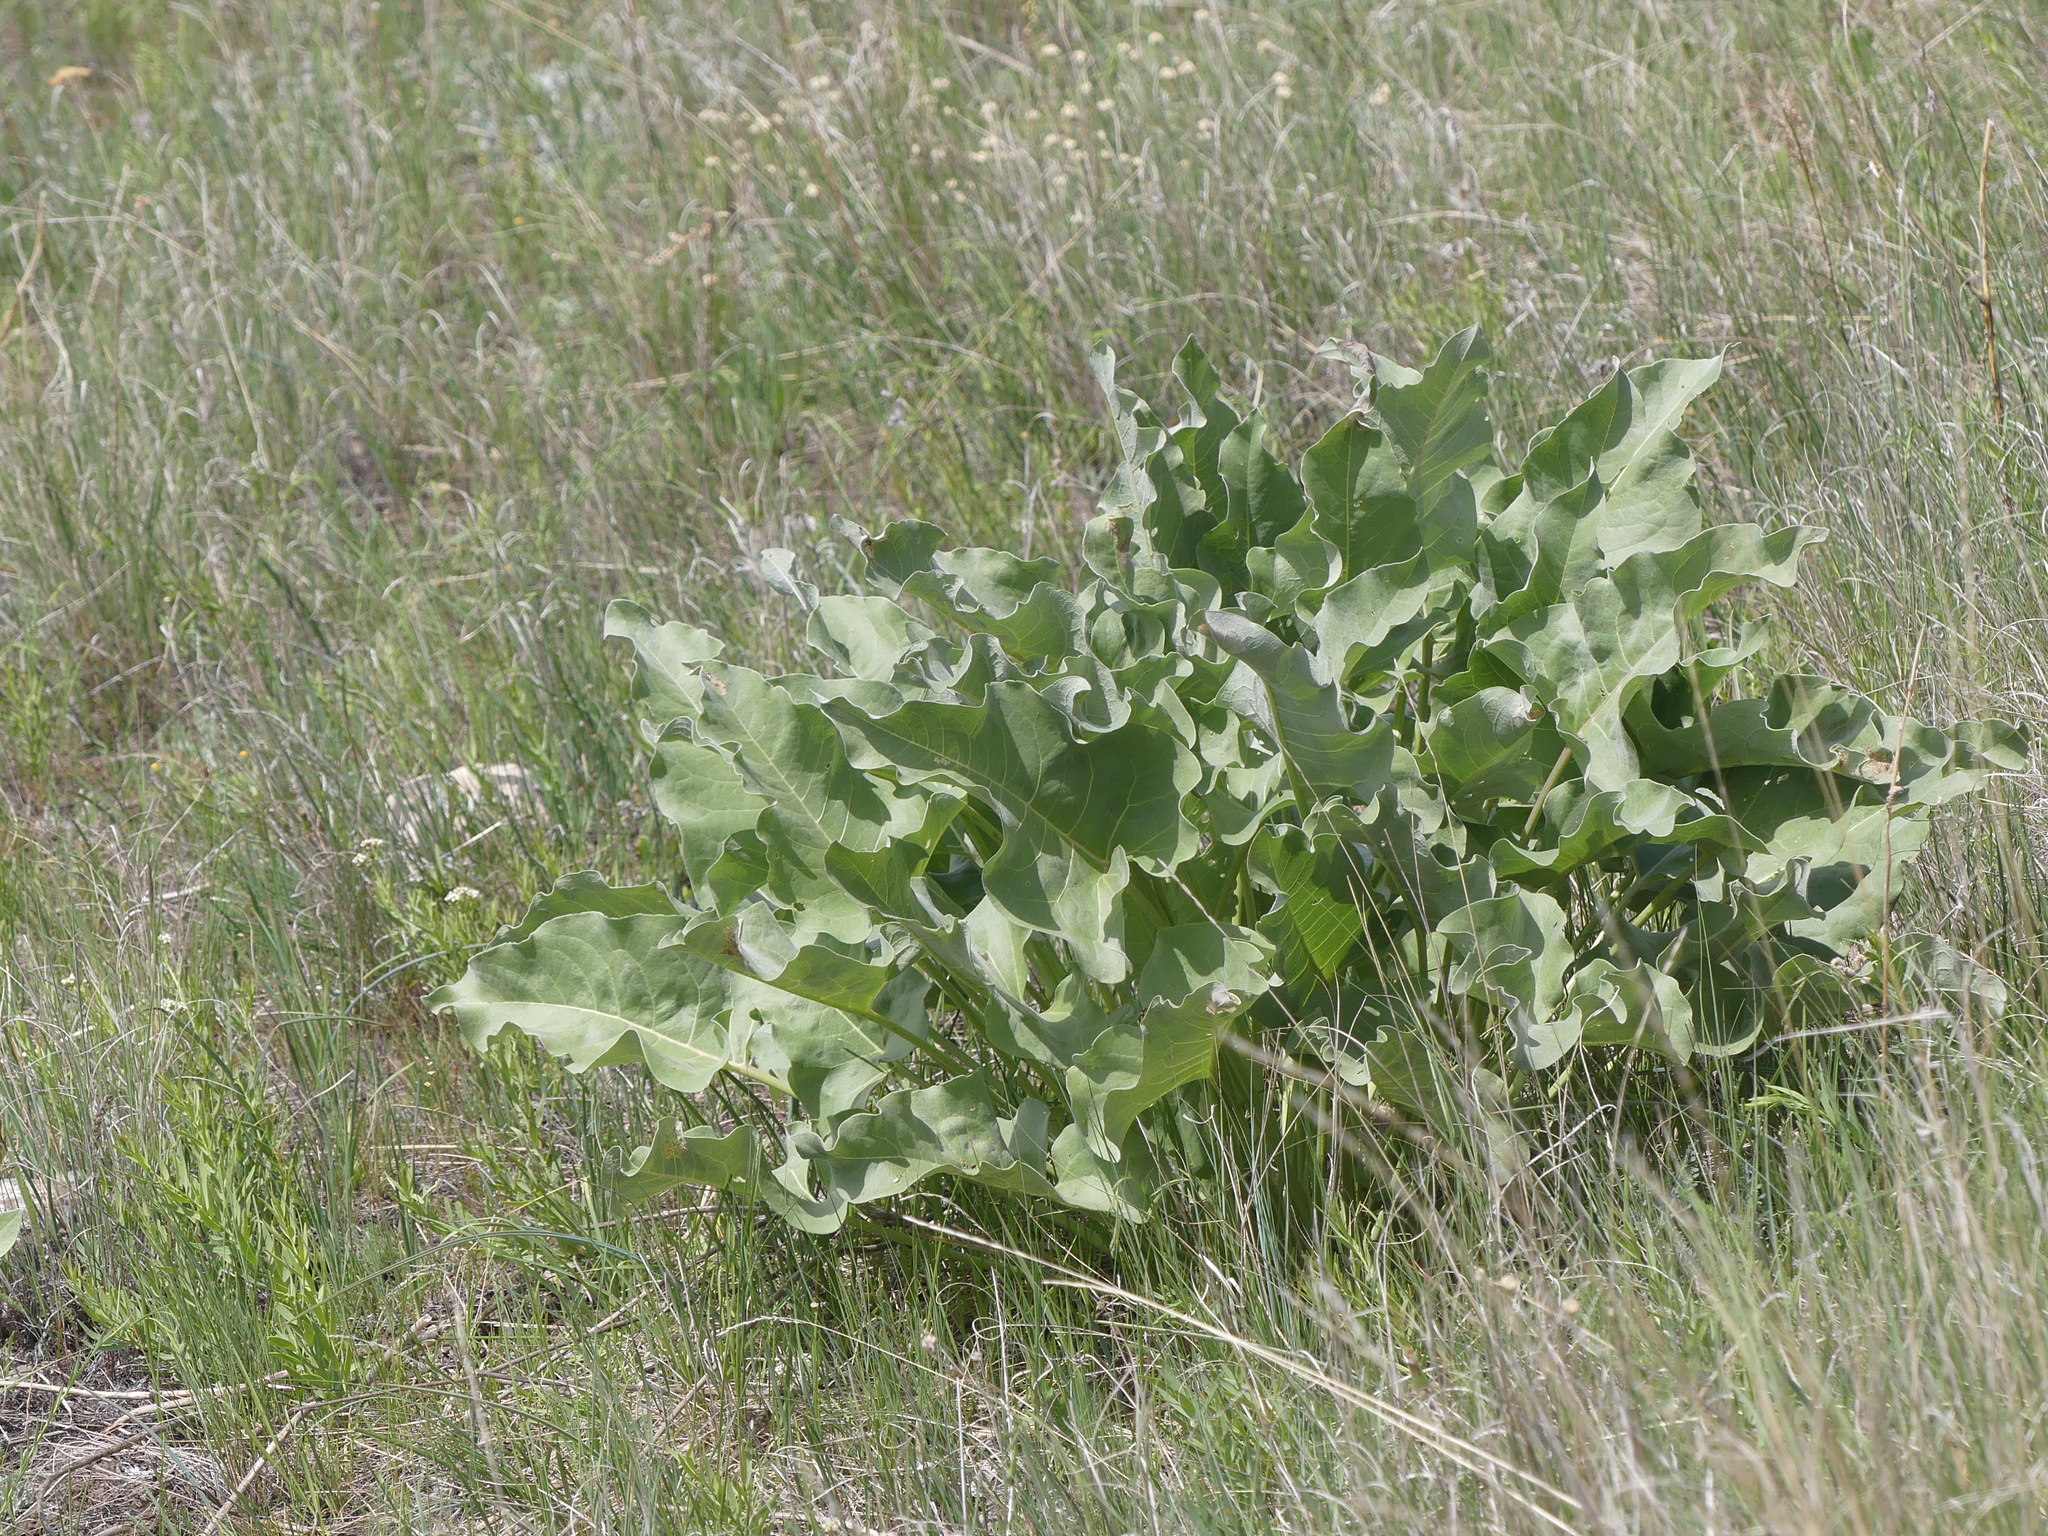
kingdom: Plantae
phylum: Tracheophyta
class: Magnoliopsida
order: Asterales
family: Asteraceae
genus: Wyethia
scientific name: Wyethia sagittata
